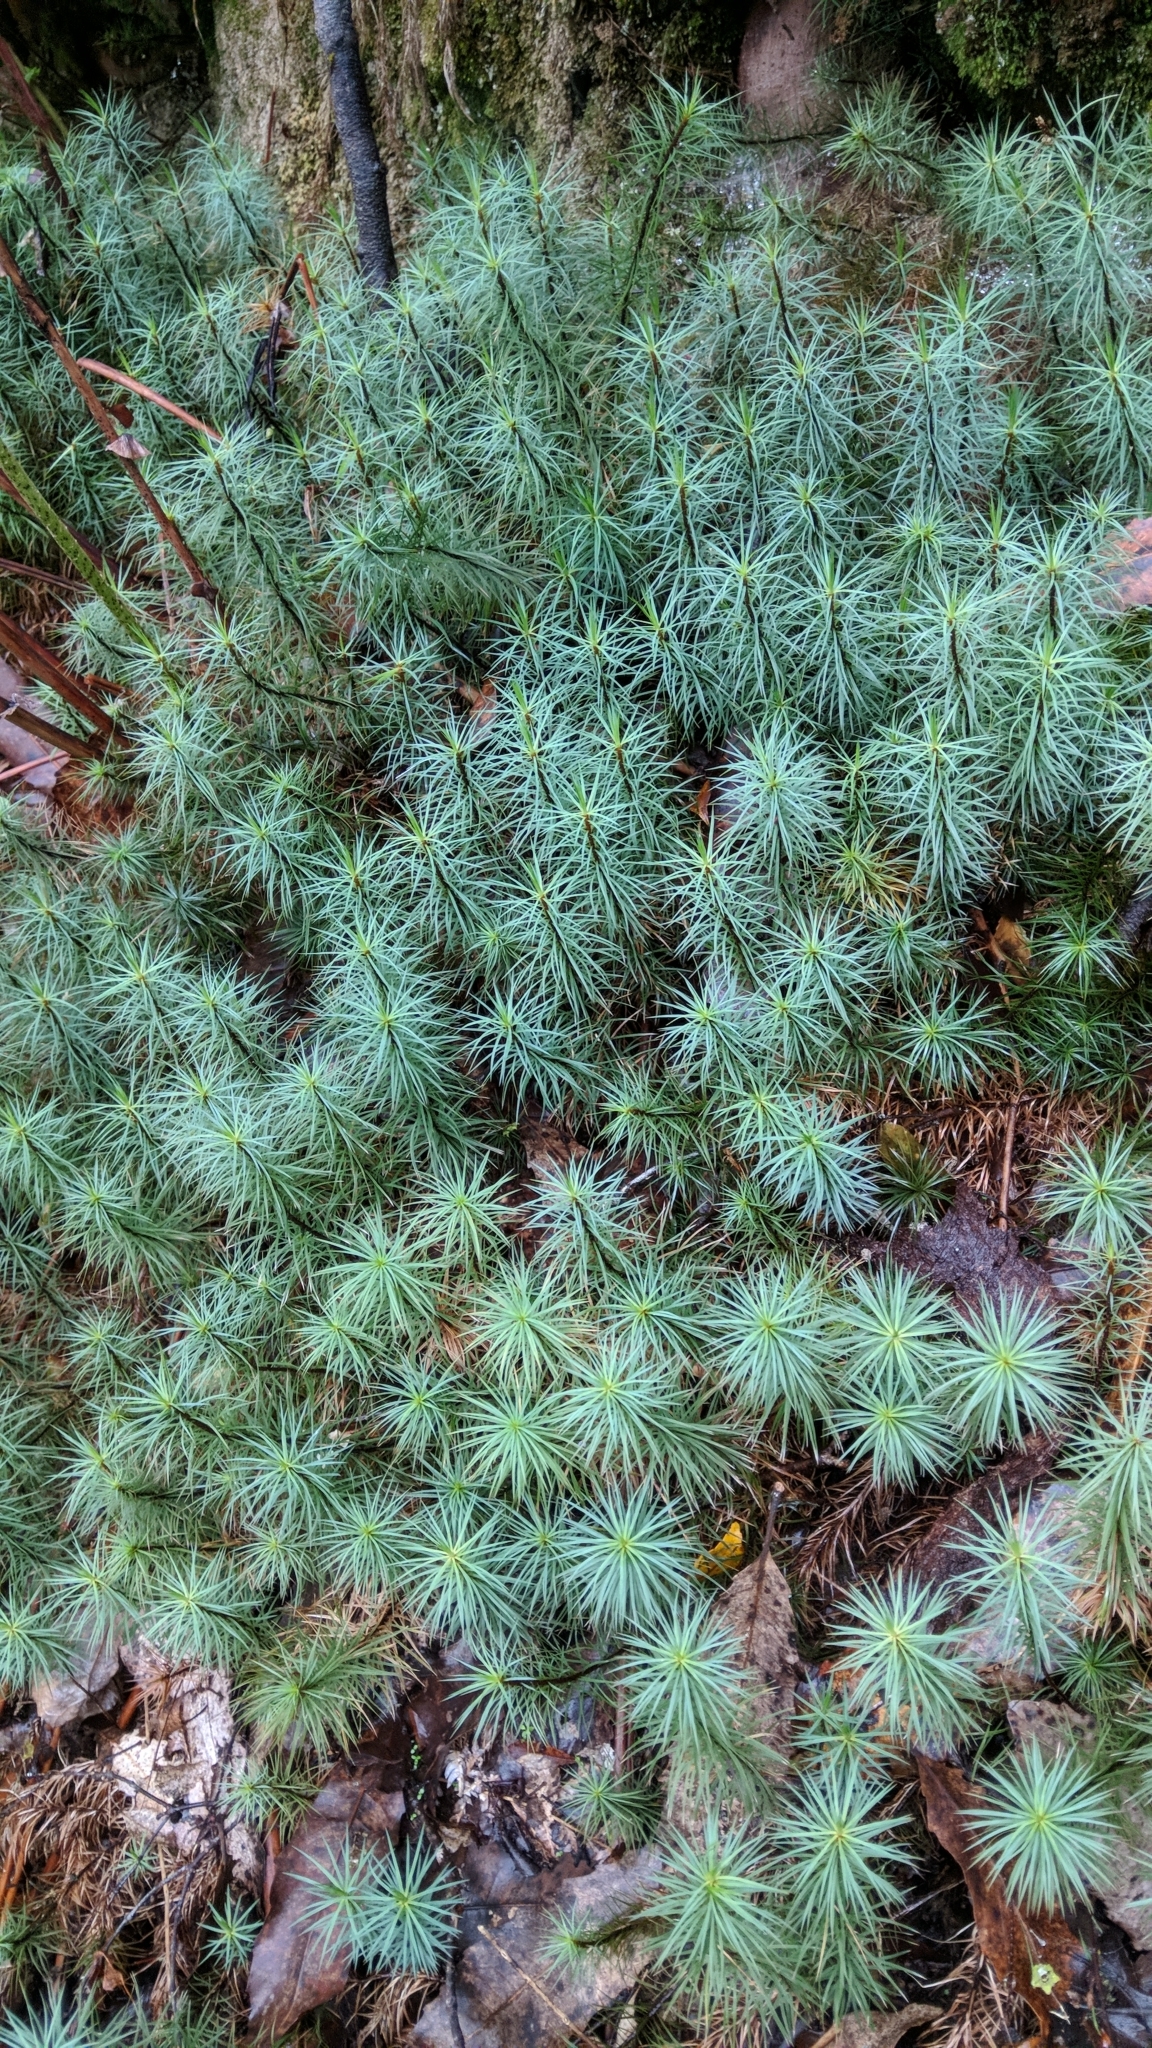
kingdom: Plantae
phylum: Bryophyta
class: Polytrichopsida
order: Polytrichales
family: Polytrichaceae
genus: Dawsonia
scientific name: Dawsonia superba
